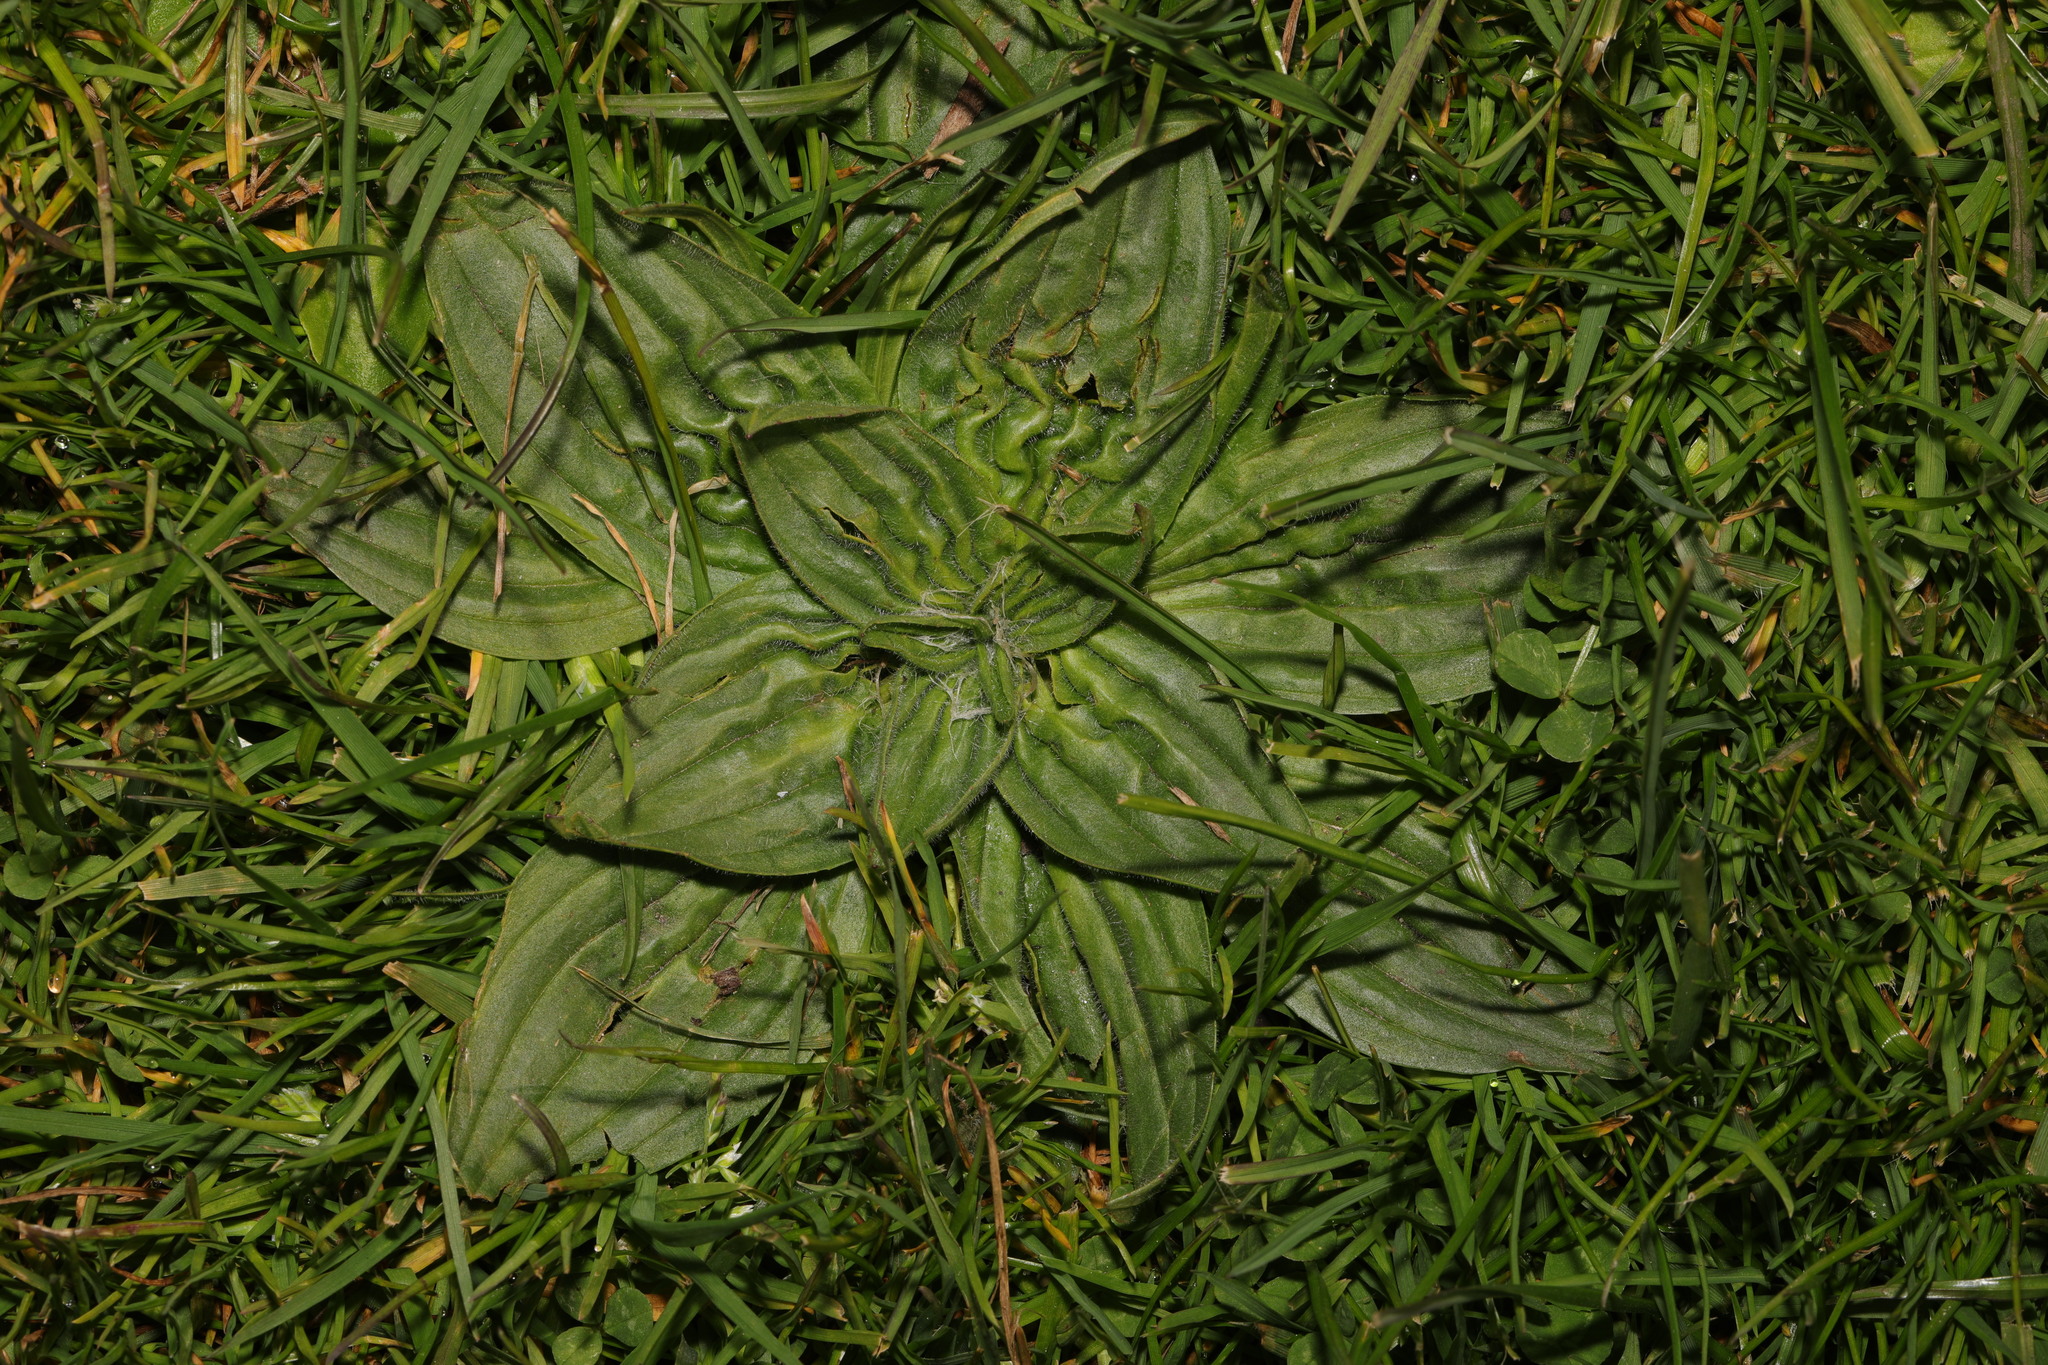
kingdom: Plantae
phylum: Tracheophyta
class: Magnoliopsida
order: Lamiales
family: Plantaginaceae
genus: Plantago
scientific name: Plantago media
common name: Hoary plantain
